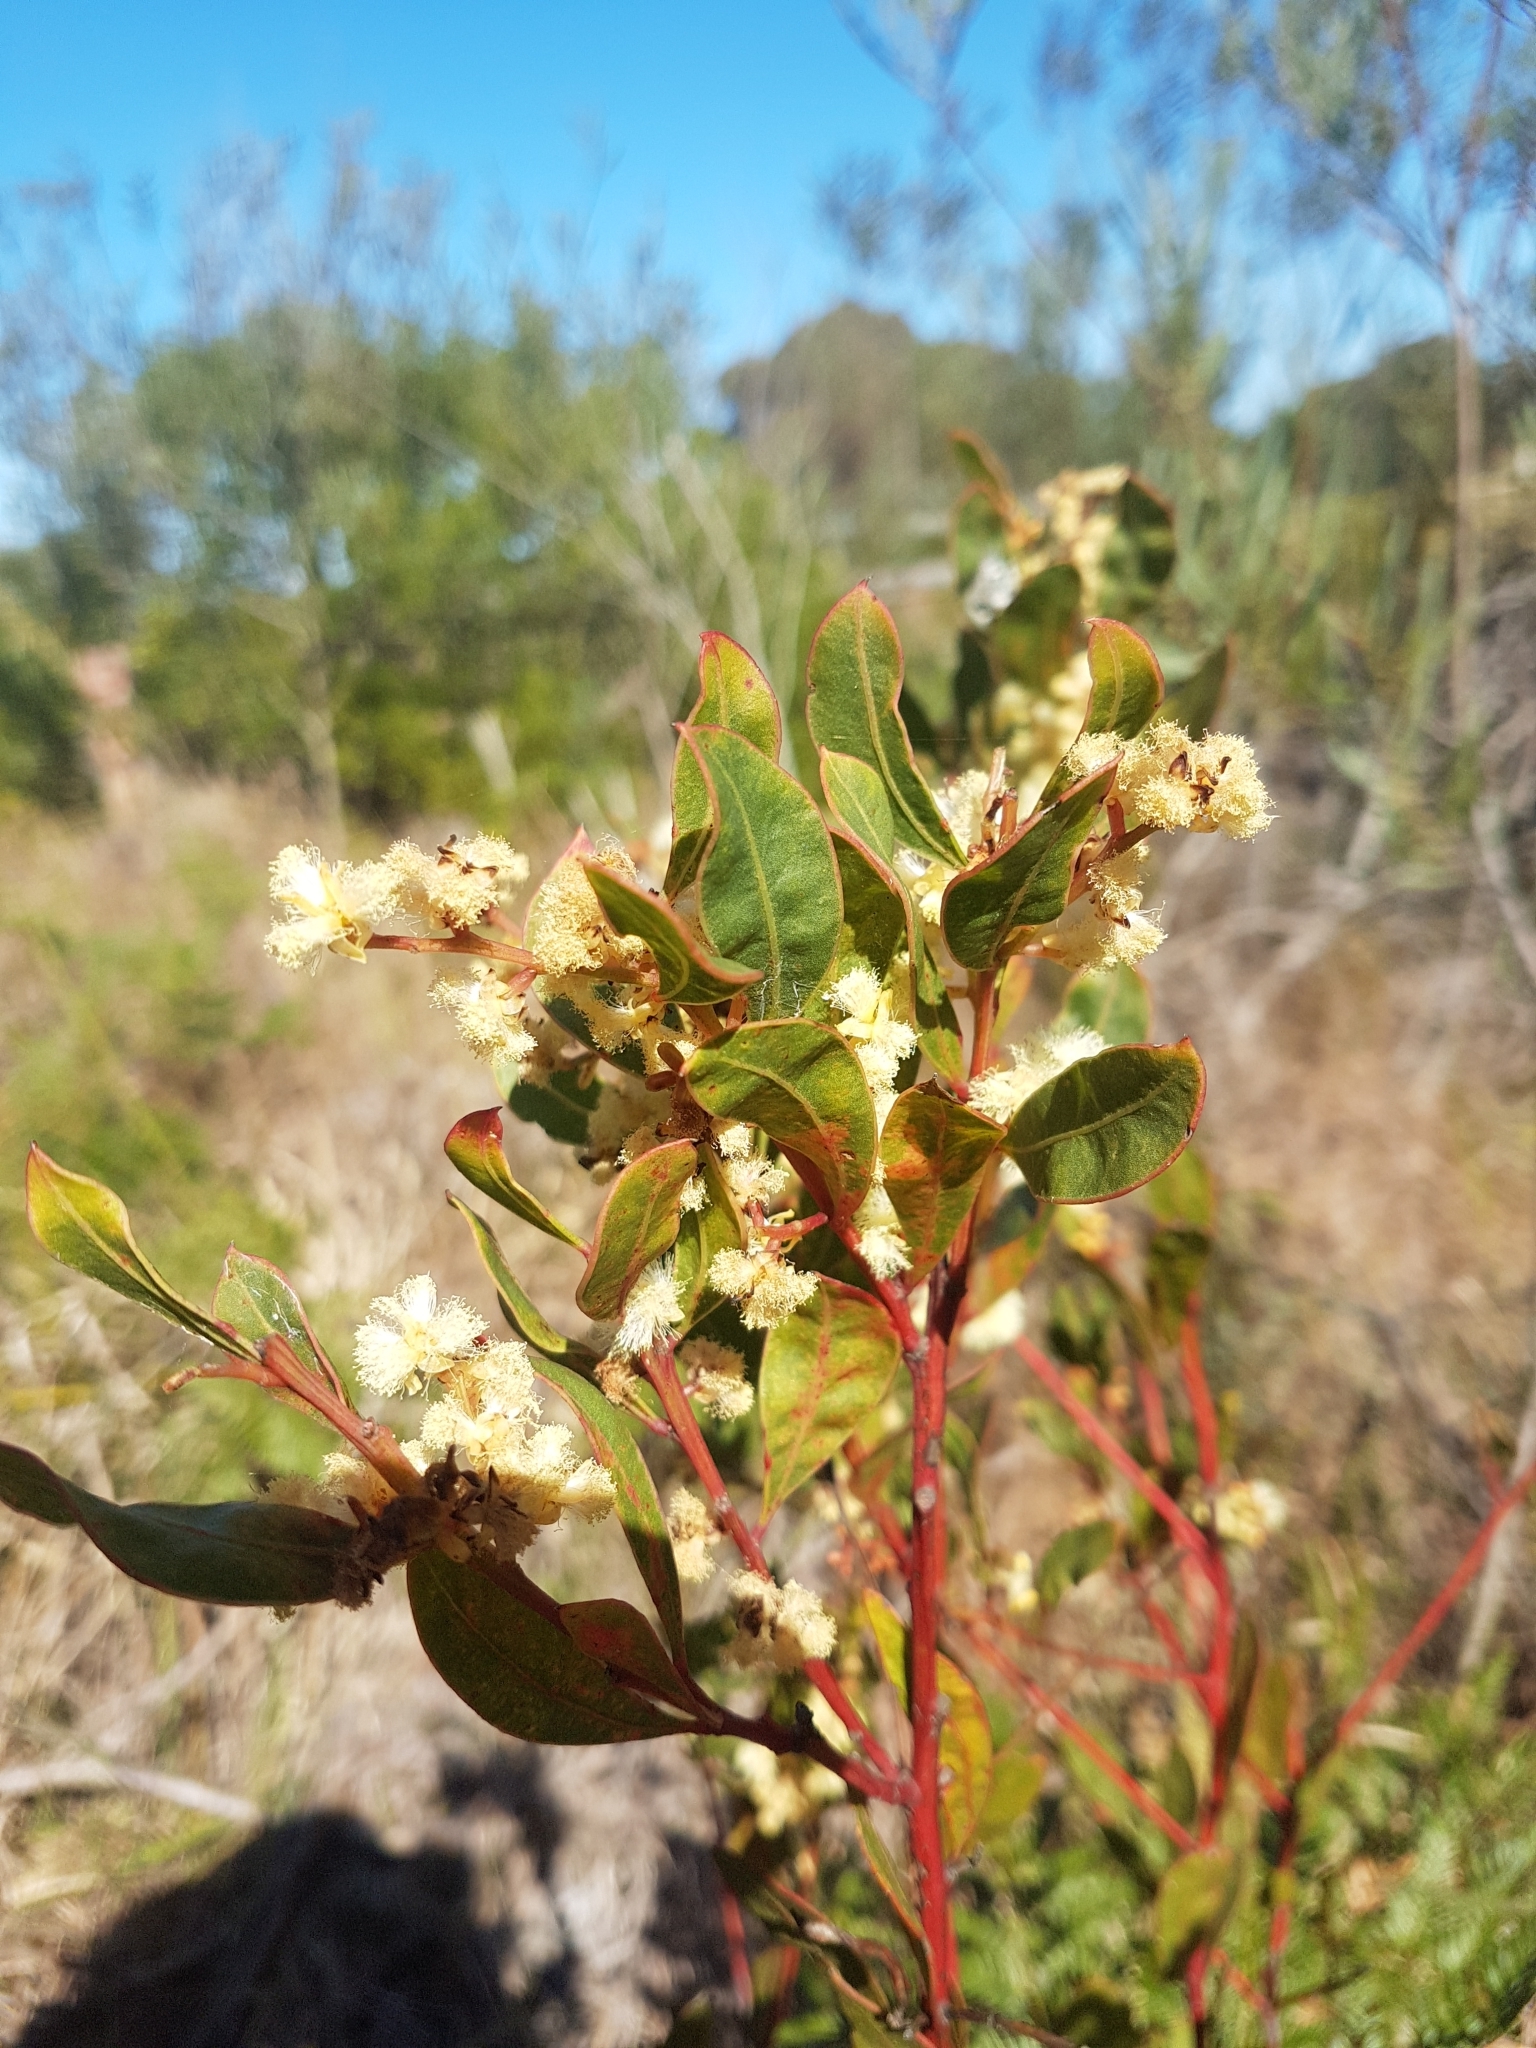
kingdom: Plantae
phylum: Tracheophyta
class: Magnoliopsida
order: Fabales
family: Fabaceae
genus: Acacia
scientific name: Acacia myrtifolia
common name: Myrtle wattle
